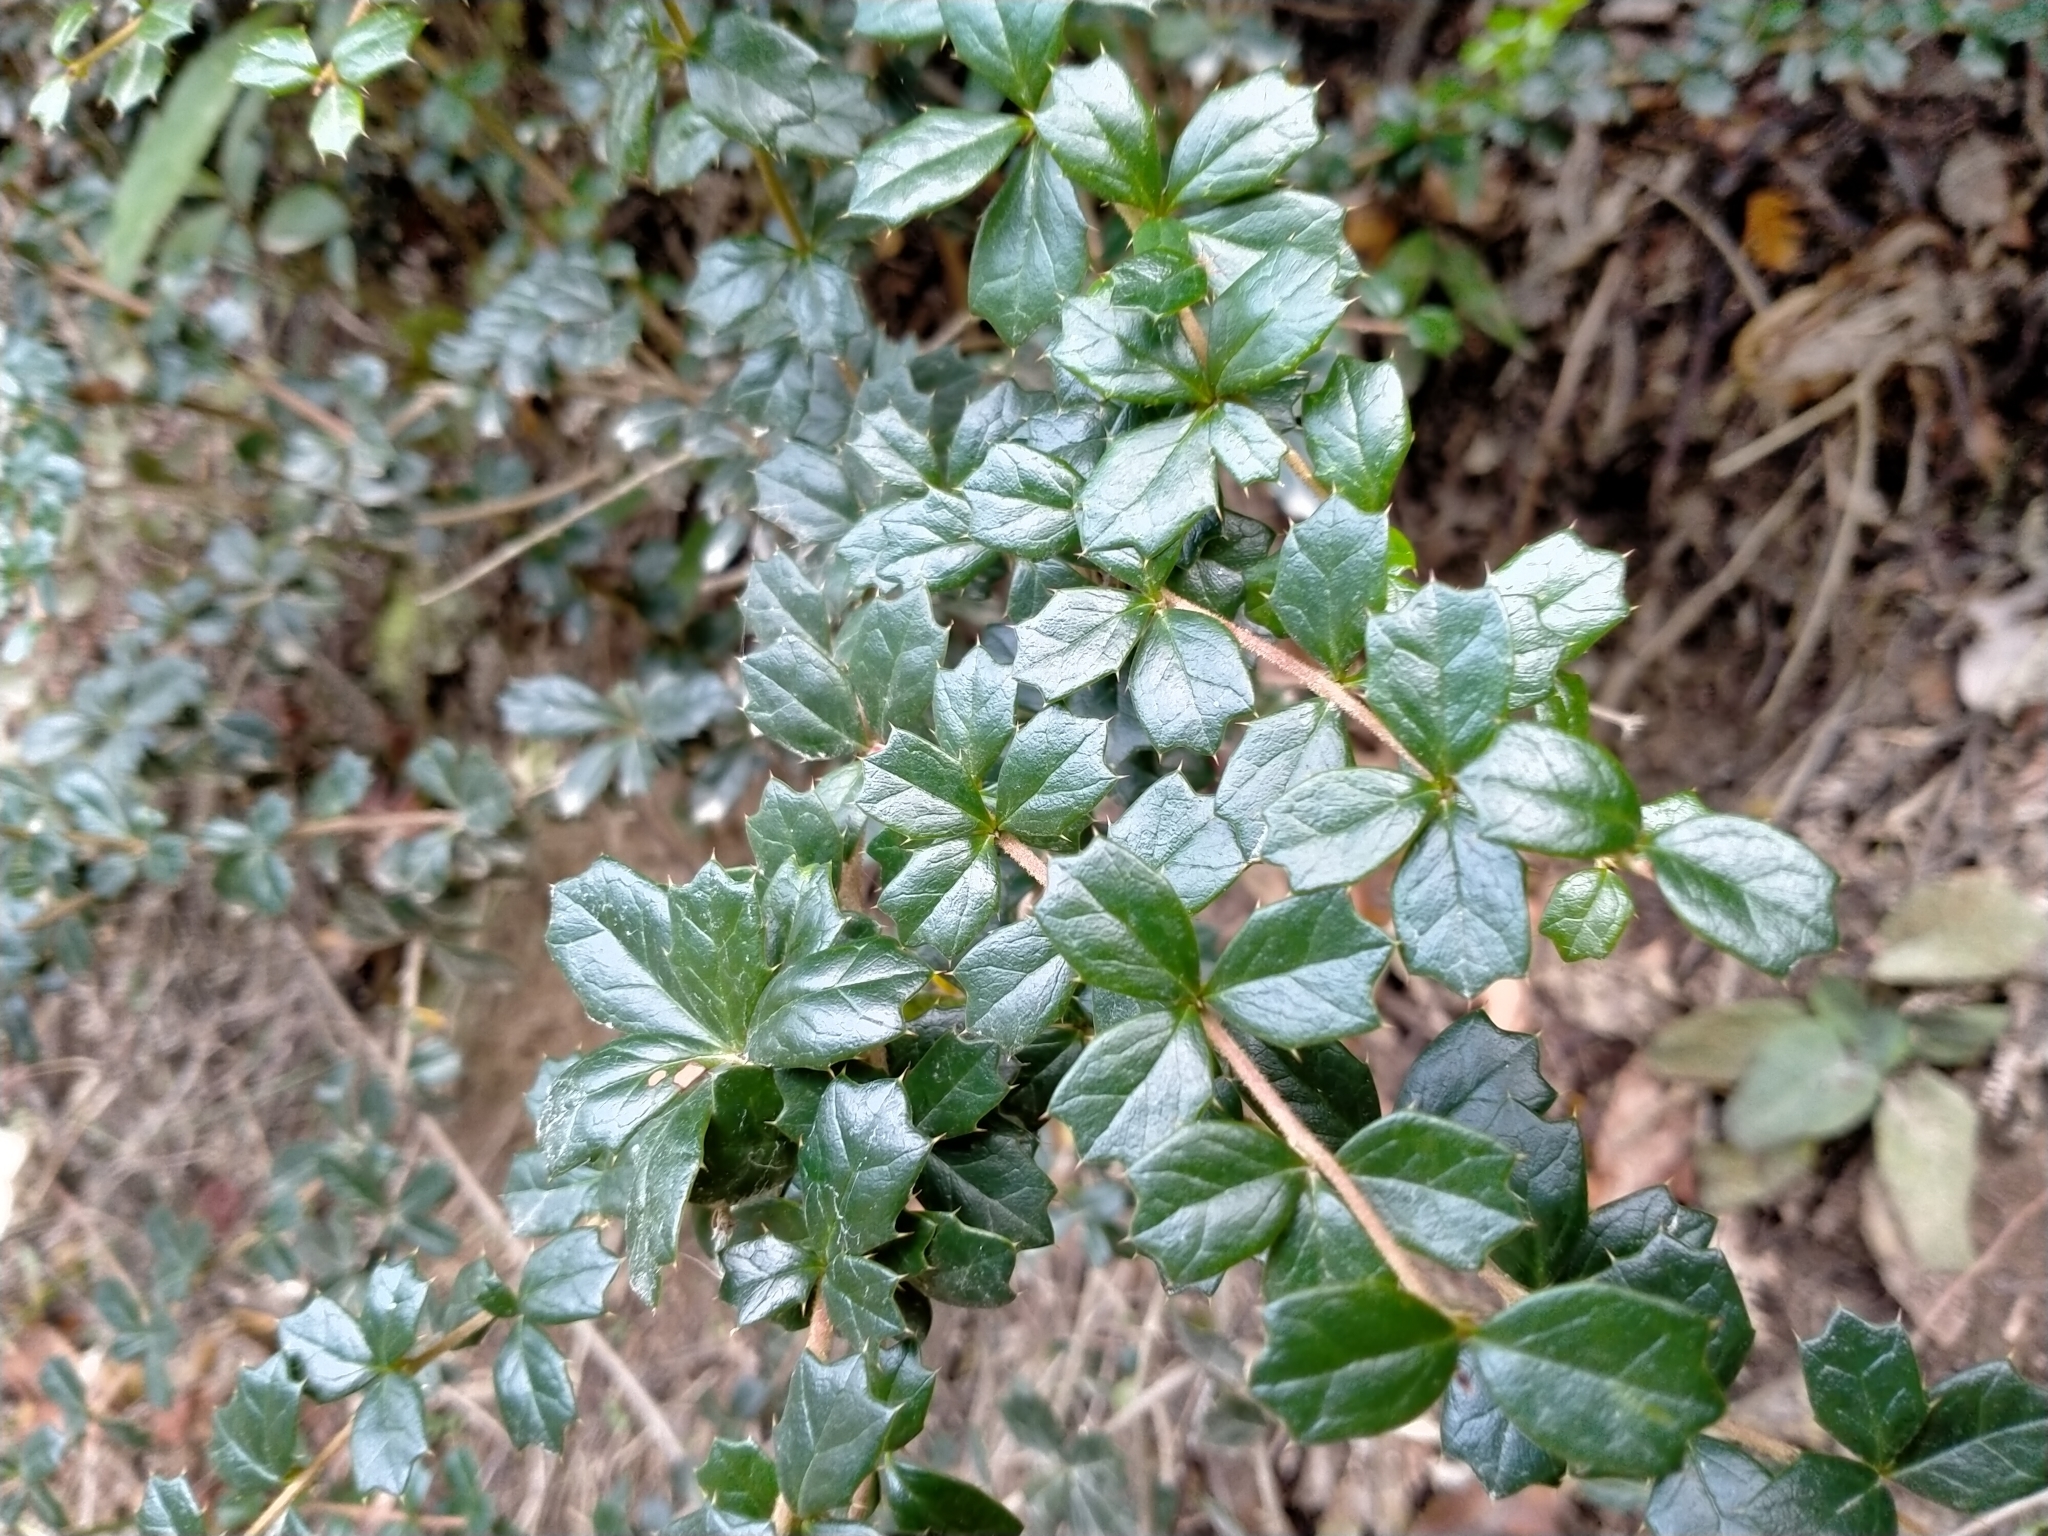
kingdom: Plantae
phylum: Tracheophyta
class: Magnoliopsida
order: Ranunculales
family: Berberidaceae
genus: Berberis
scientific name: Berberis darwinii
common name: Darwin's barberry
